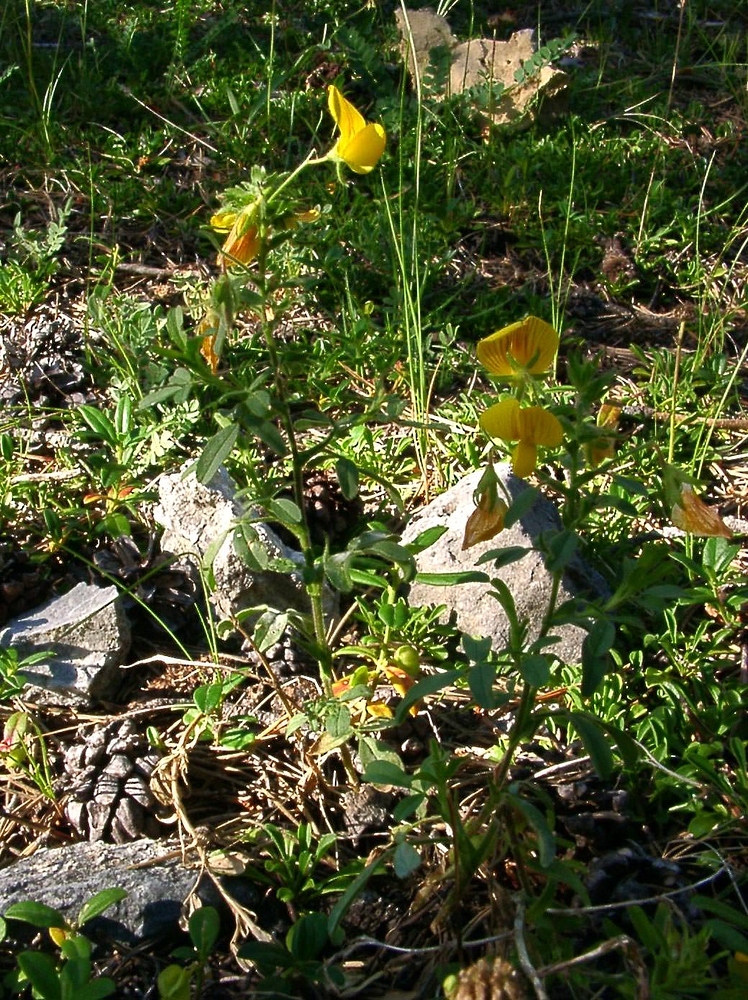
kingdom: Plantae
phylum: Tracheophyta
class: Magnoliopsida
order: Fabales
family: Fabaceae
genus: Ononis
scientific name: Ononis natrix
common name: Yellow restharrow
